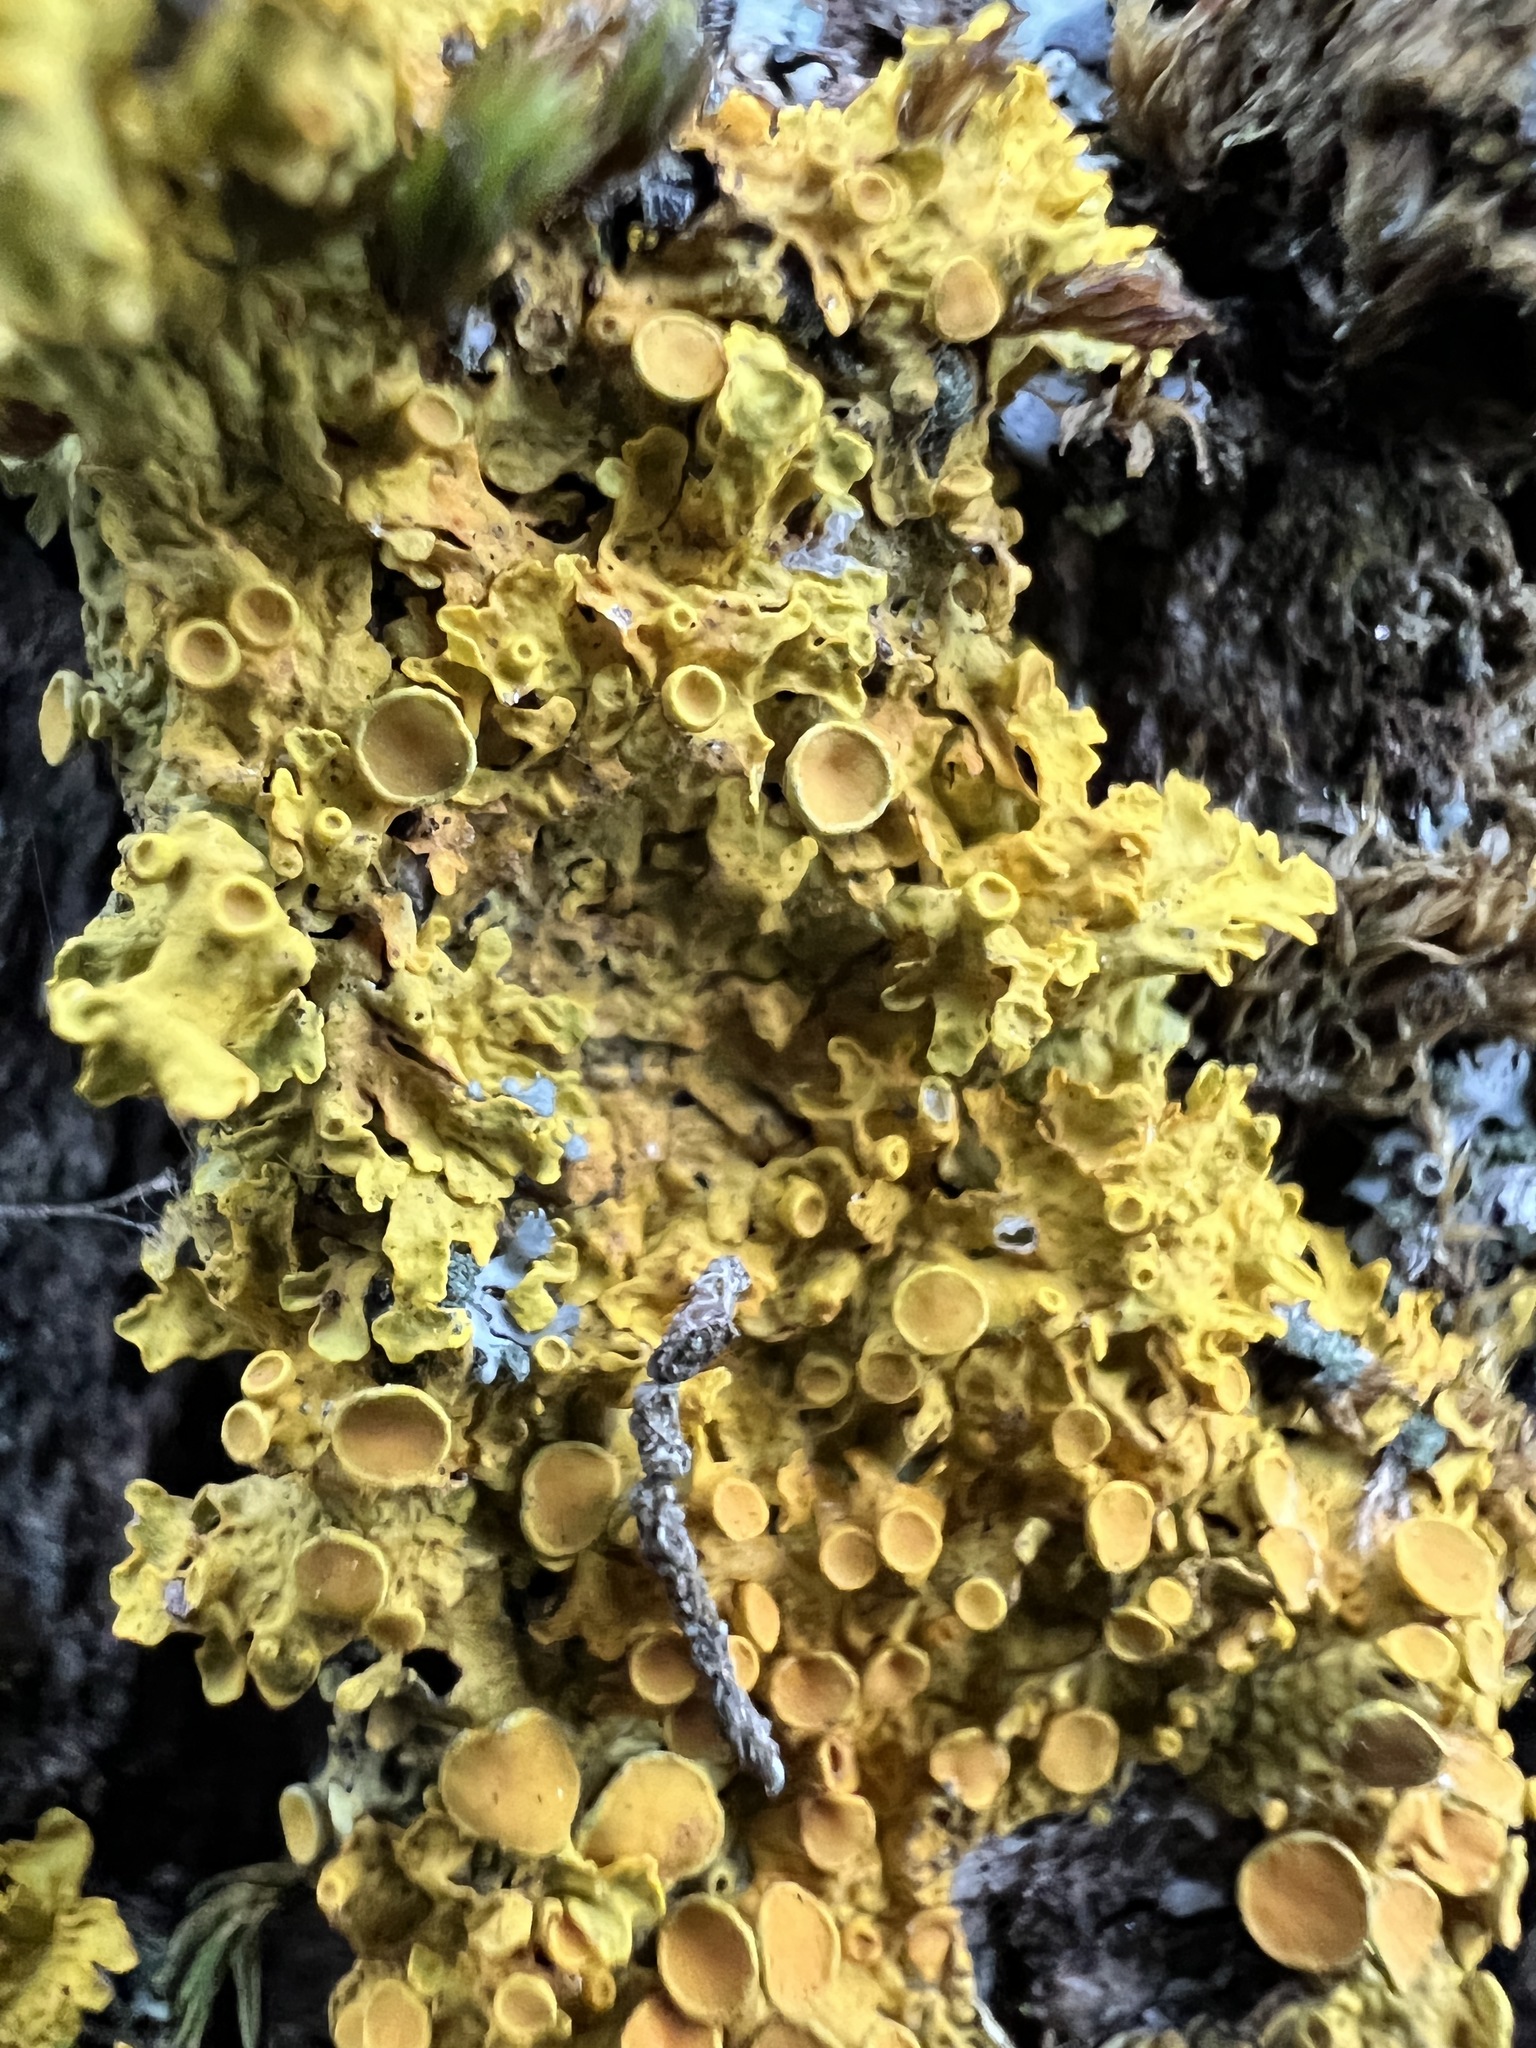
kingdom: Fungi
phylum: Ascomycota
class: Lecanoromycetes
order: Teloschistales
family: Teloschistaceae
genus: Xanthoria
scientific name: Xanthoria parietina
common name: Common orange lichen
